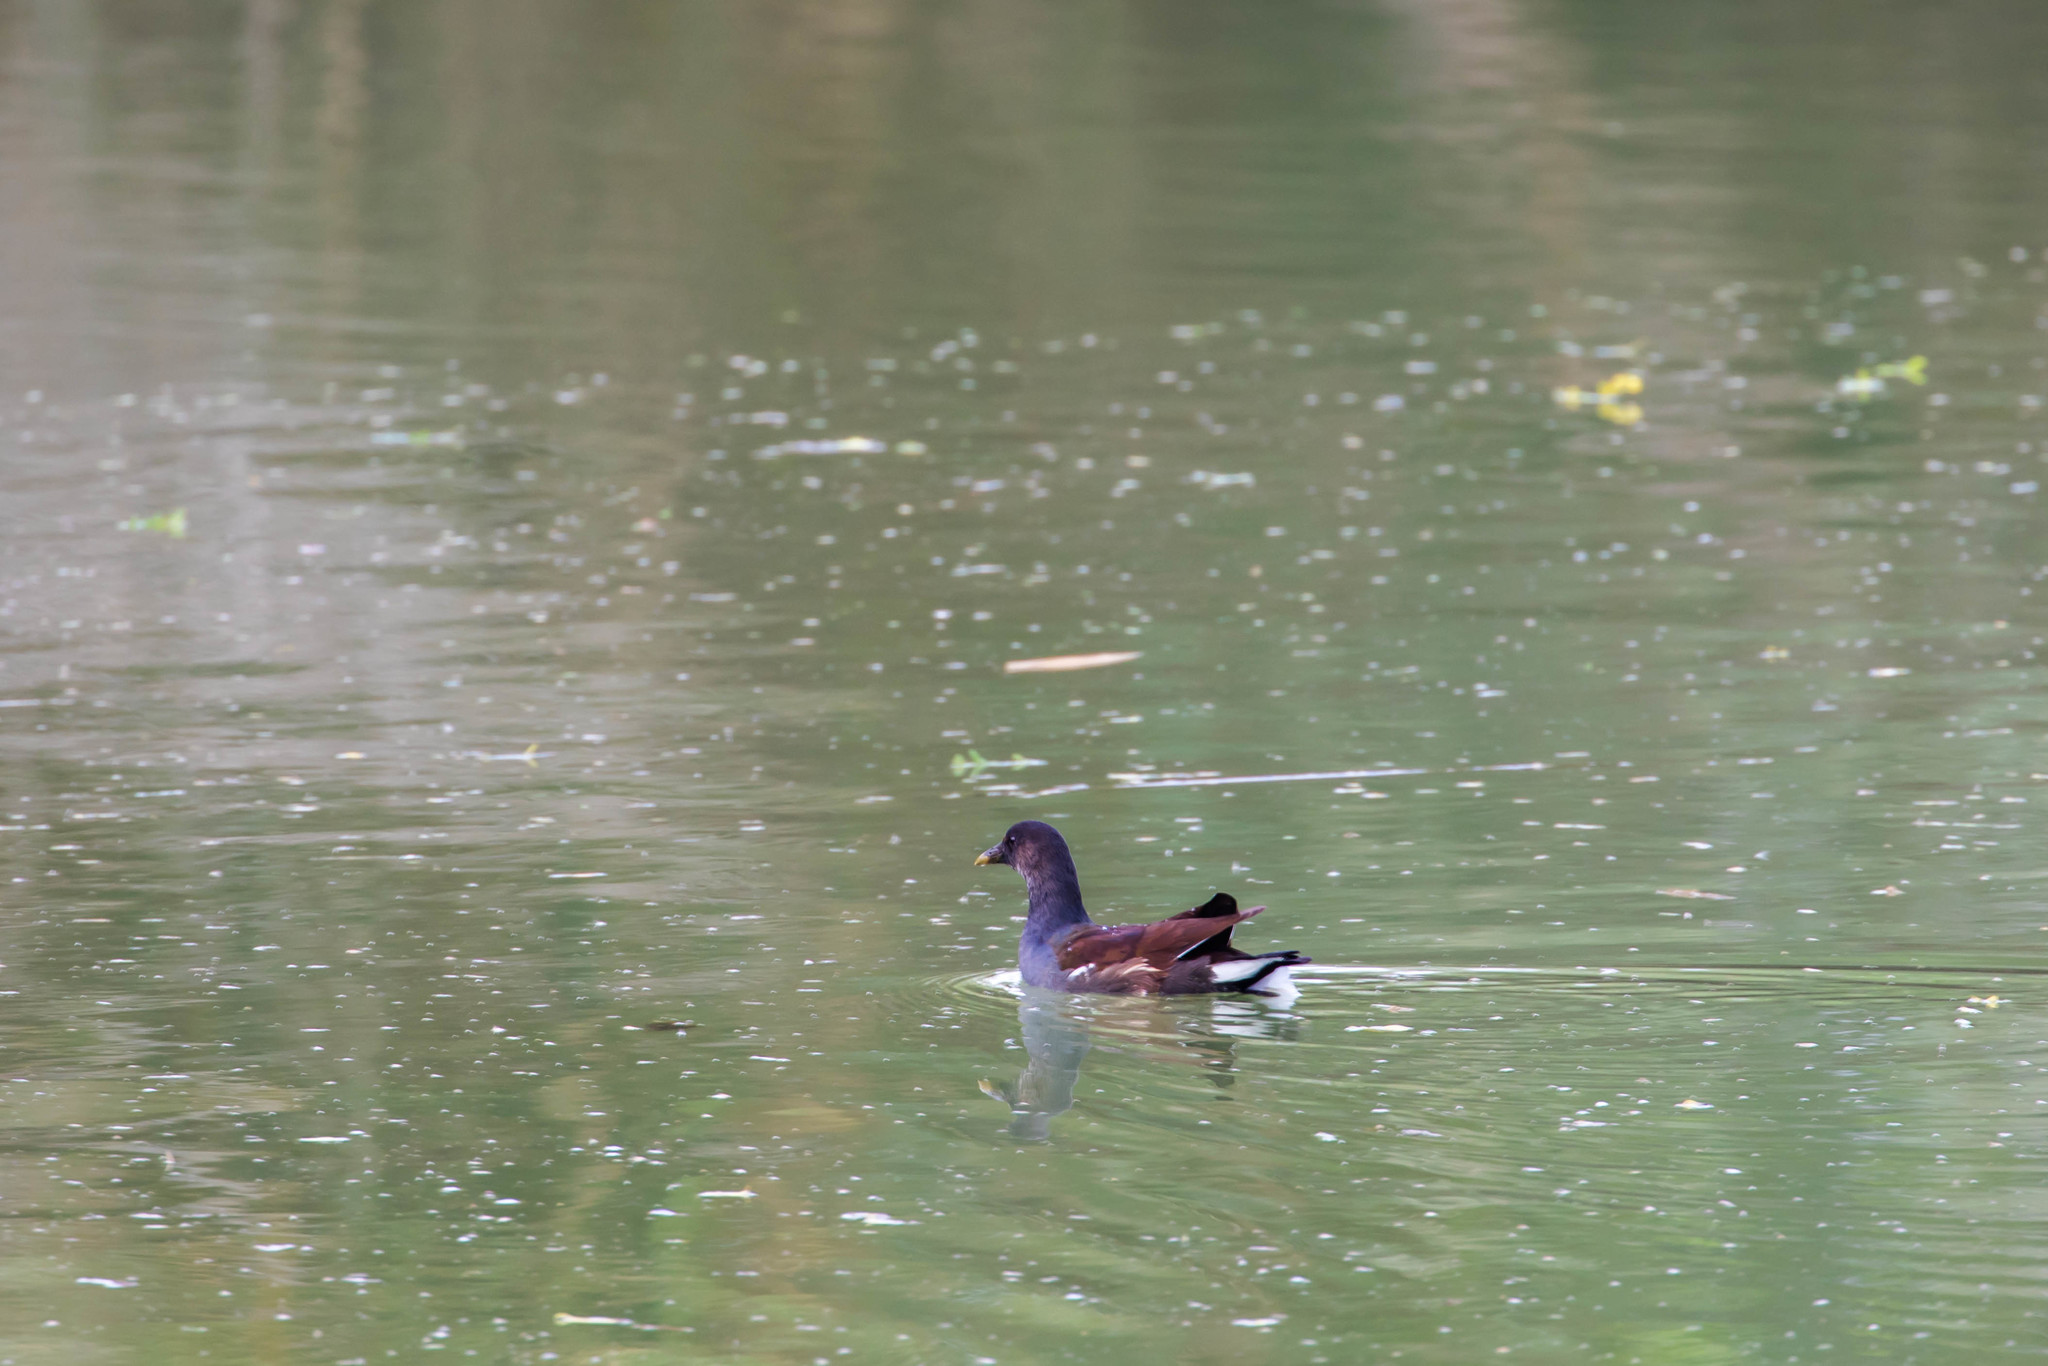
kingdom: Animalia
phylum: Chordata
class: Aves
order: Gruiformes
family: Rallidae
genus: Gallinula
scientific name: Gallinula chloropus
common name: Common moorhen
